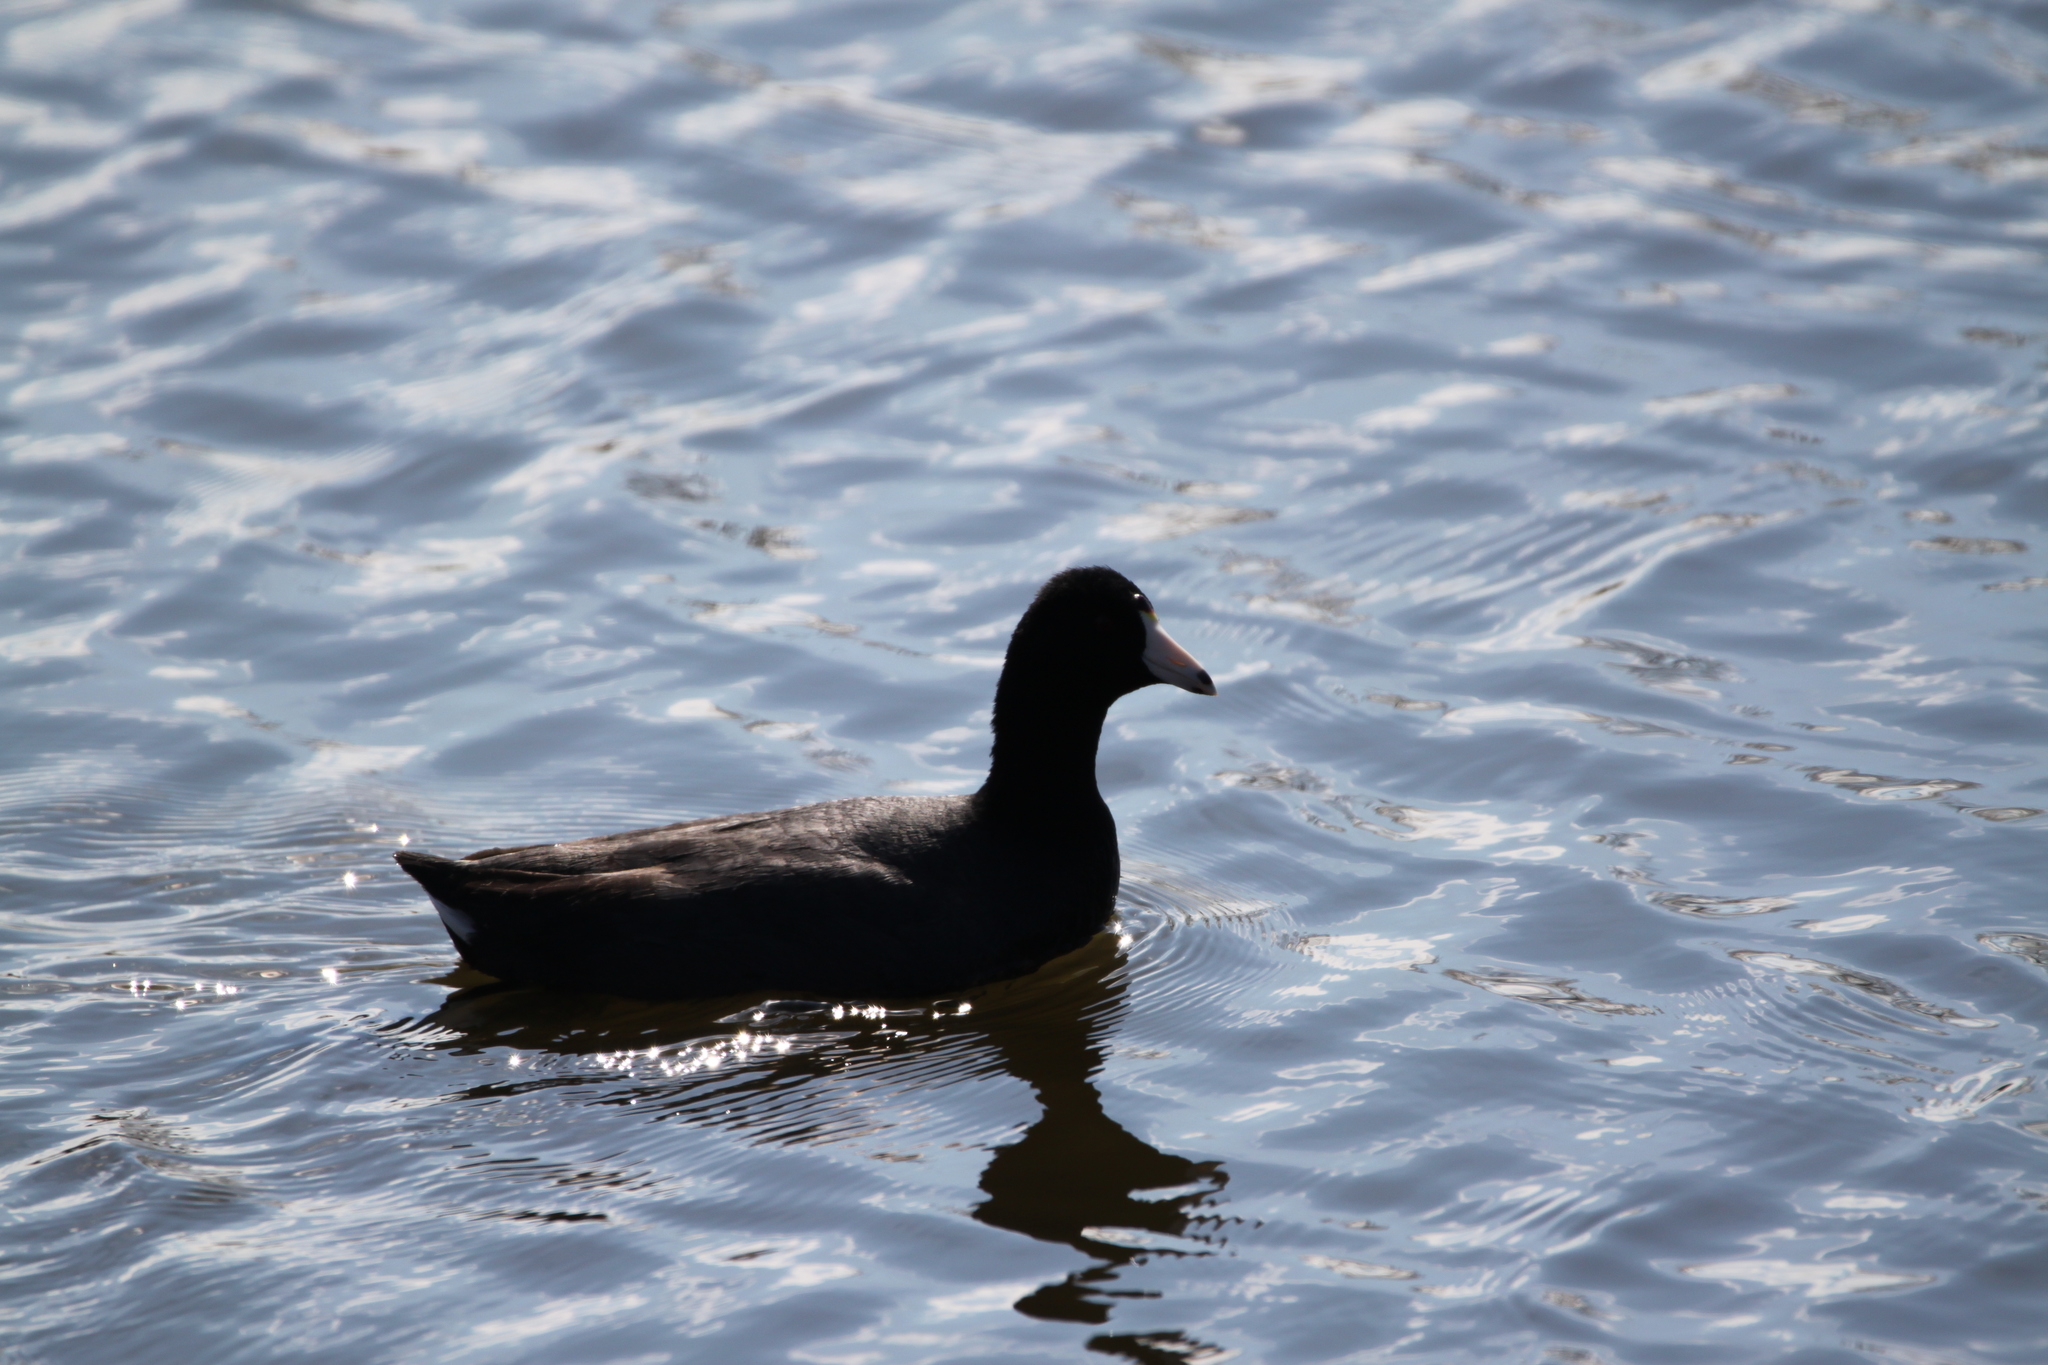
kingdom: Animalia
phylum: Chordata
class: Aves
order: Gruiformes
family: Rallidae
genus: Fulica
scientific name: Fulica americana
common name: American coot
